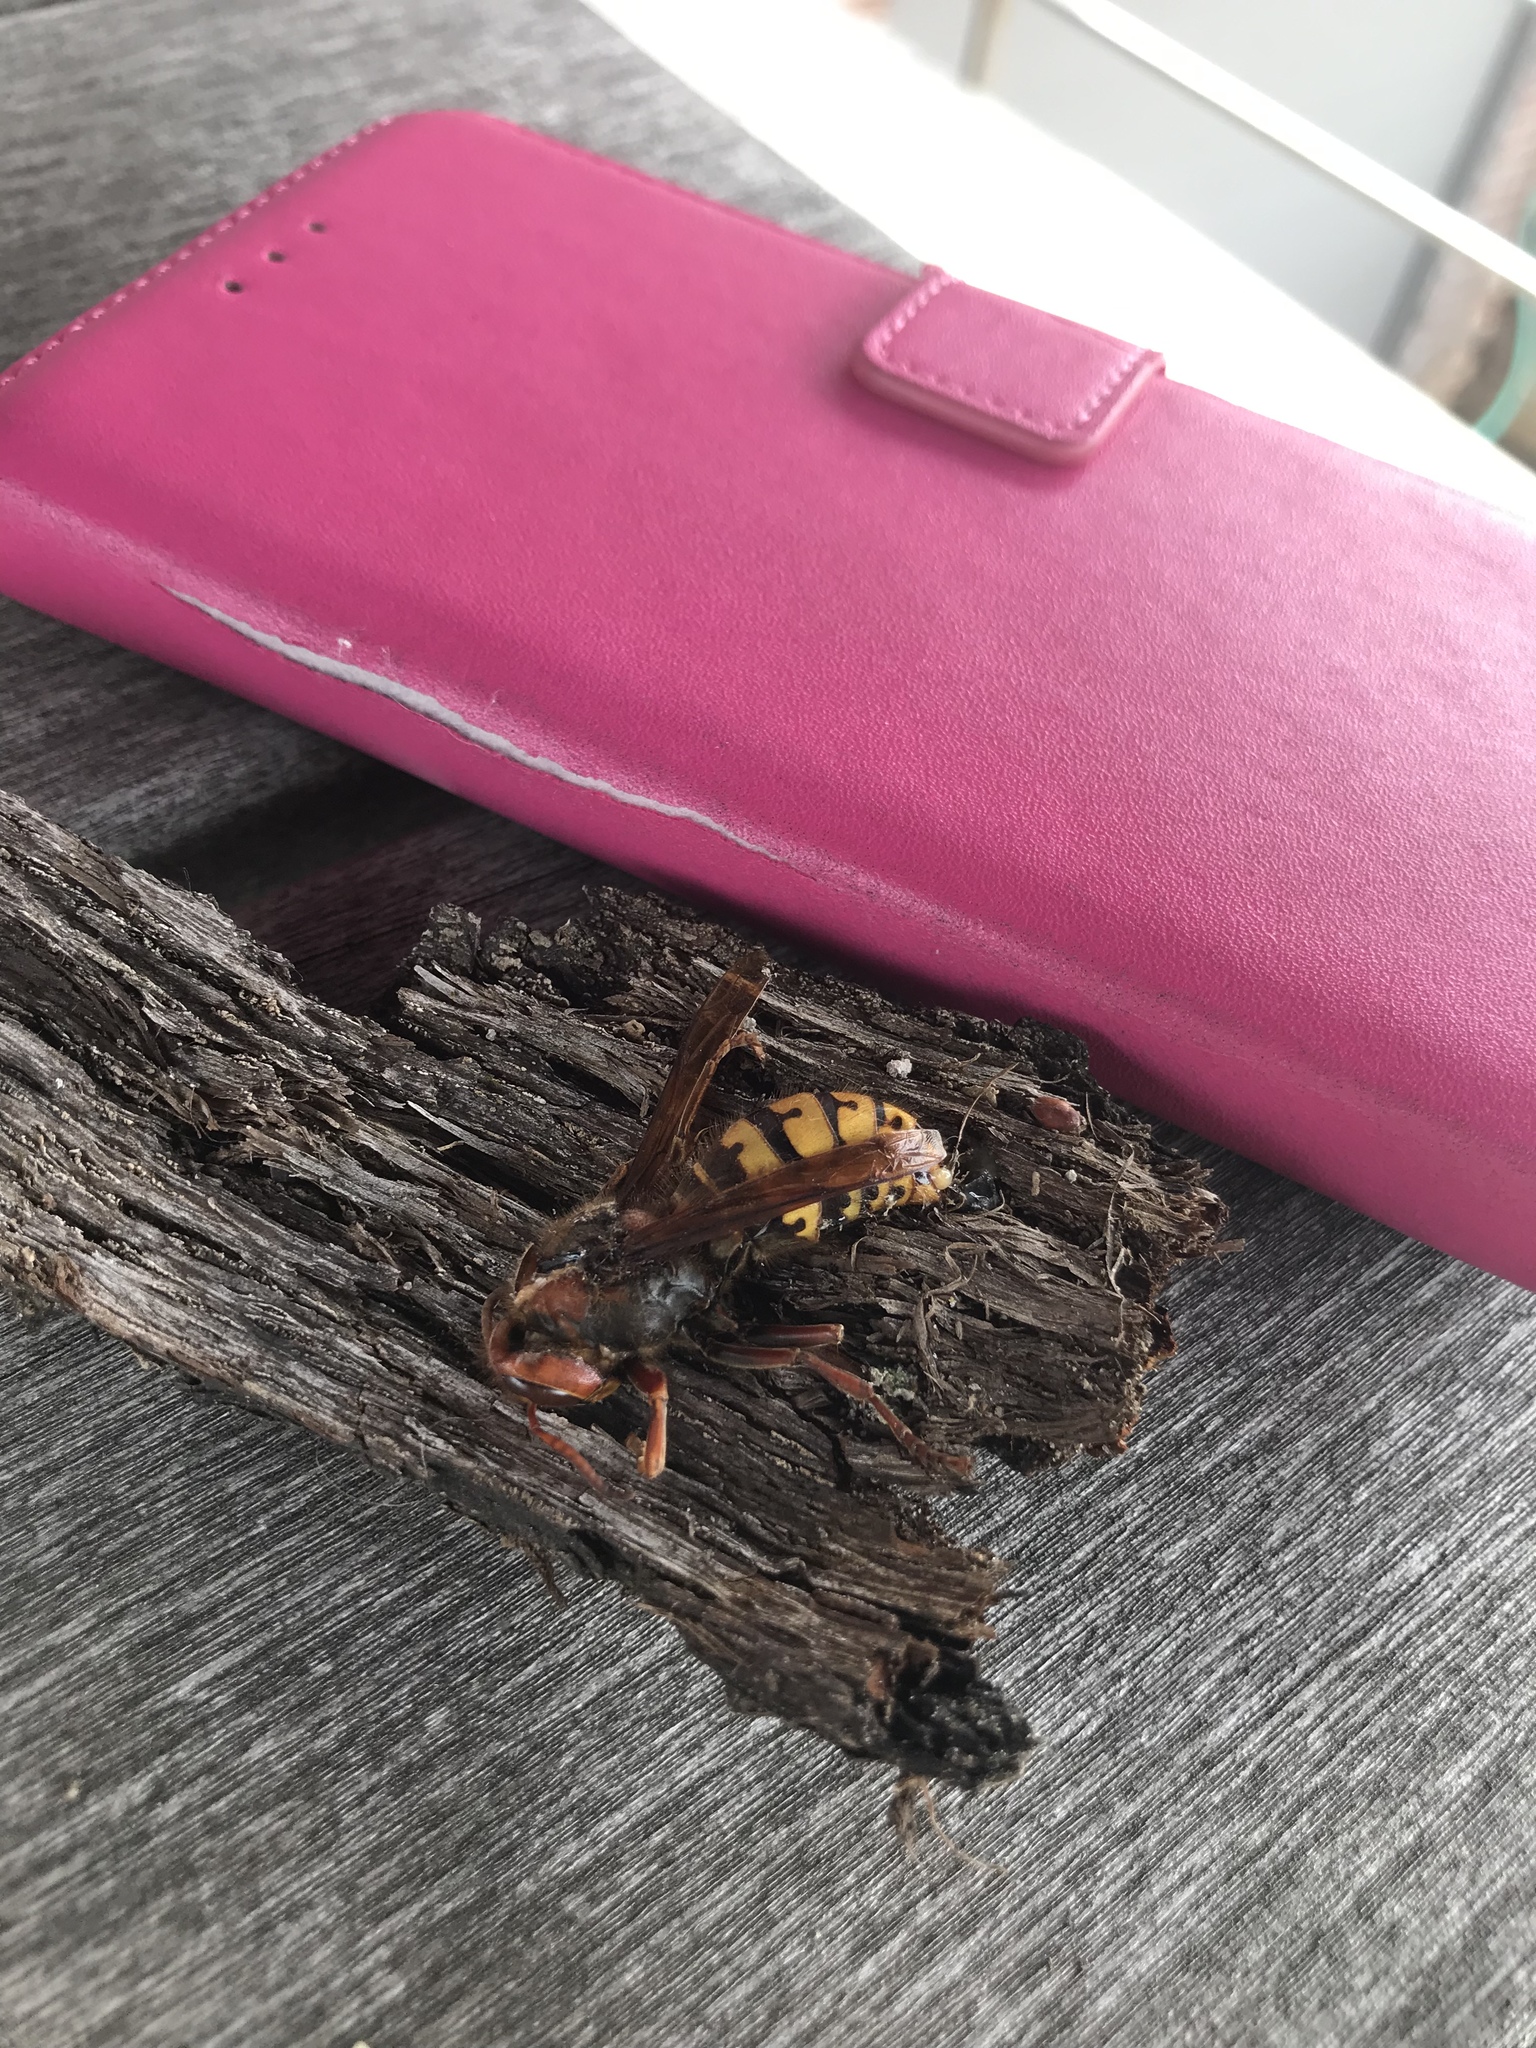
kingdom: Animalia
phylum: Arthropoda
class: Insecta
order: Hymenoptera
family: Vespidae
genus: Vespa
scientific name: Vespa crabro
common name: Hornet
